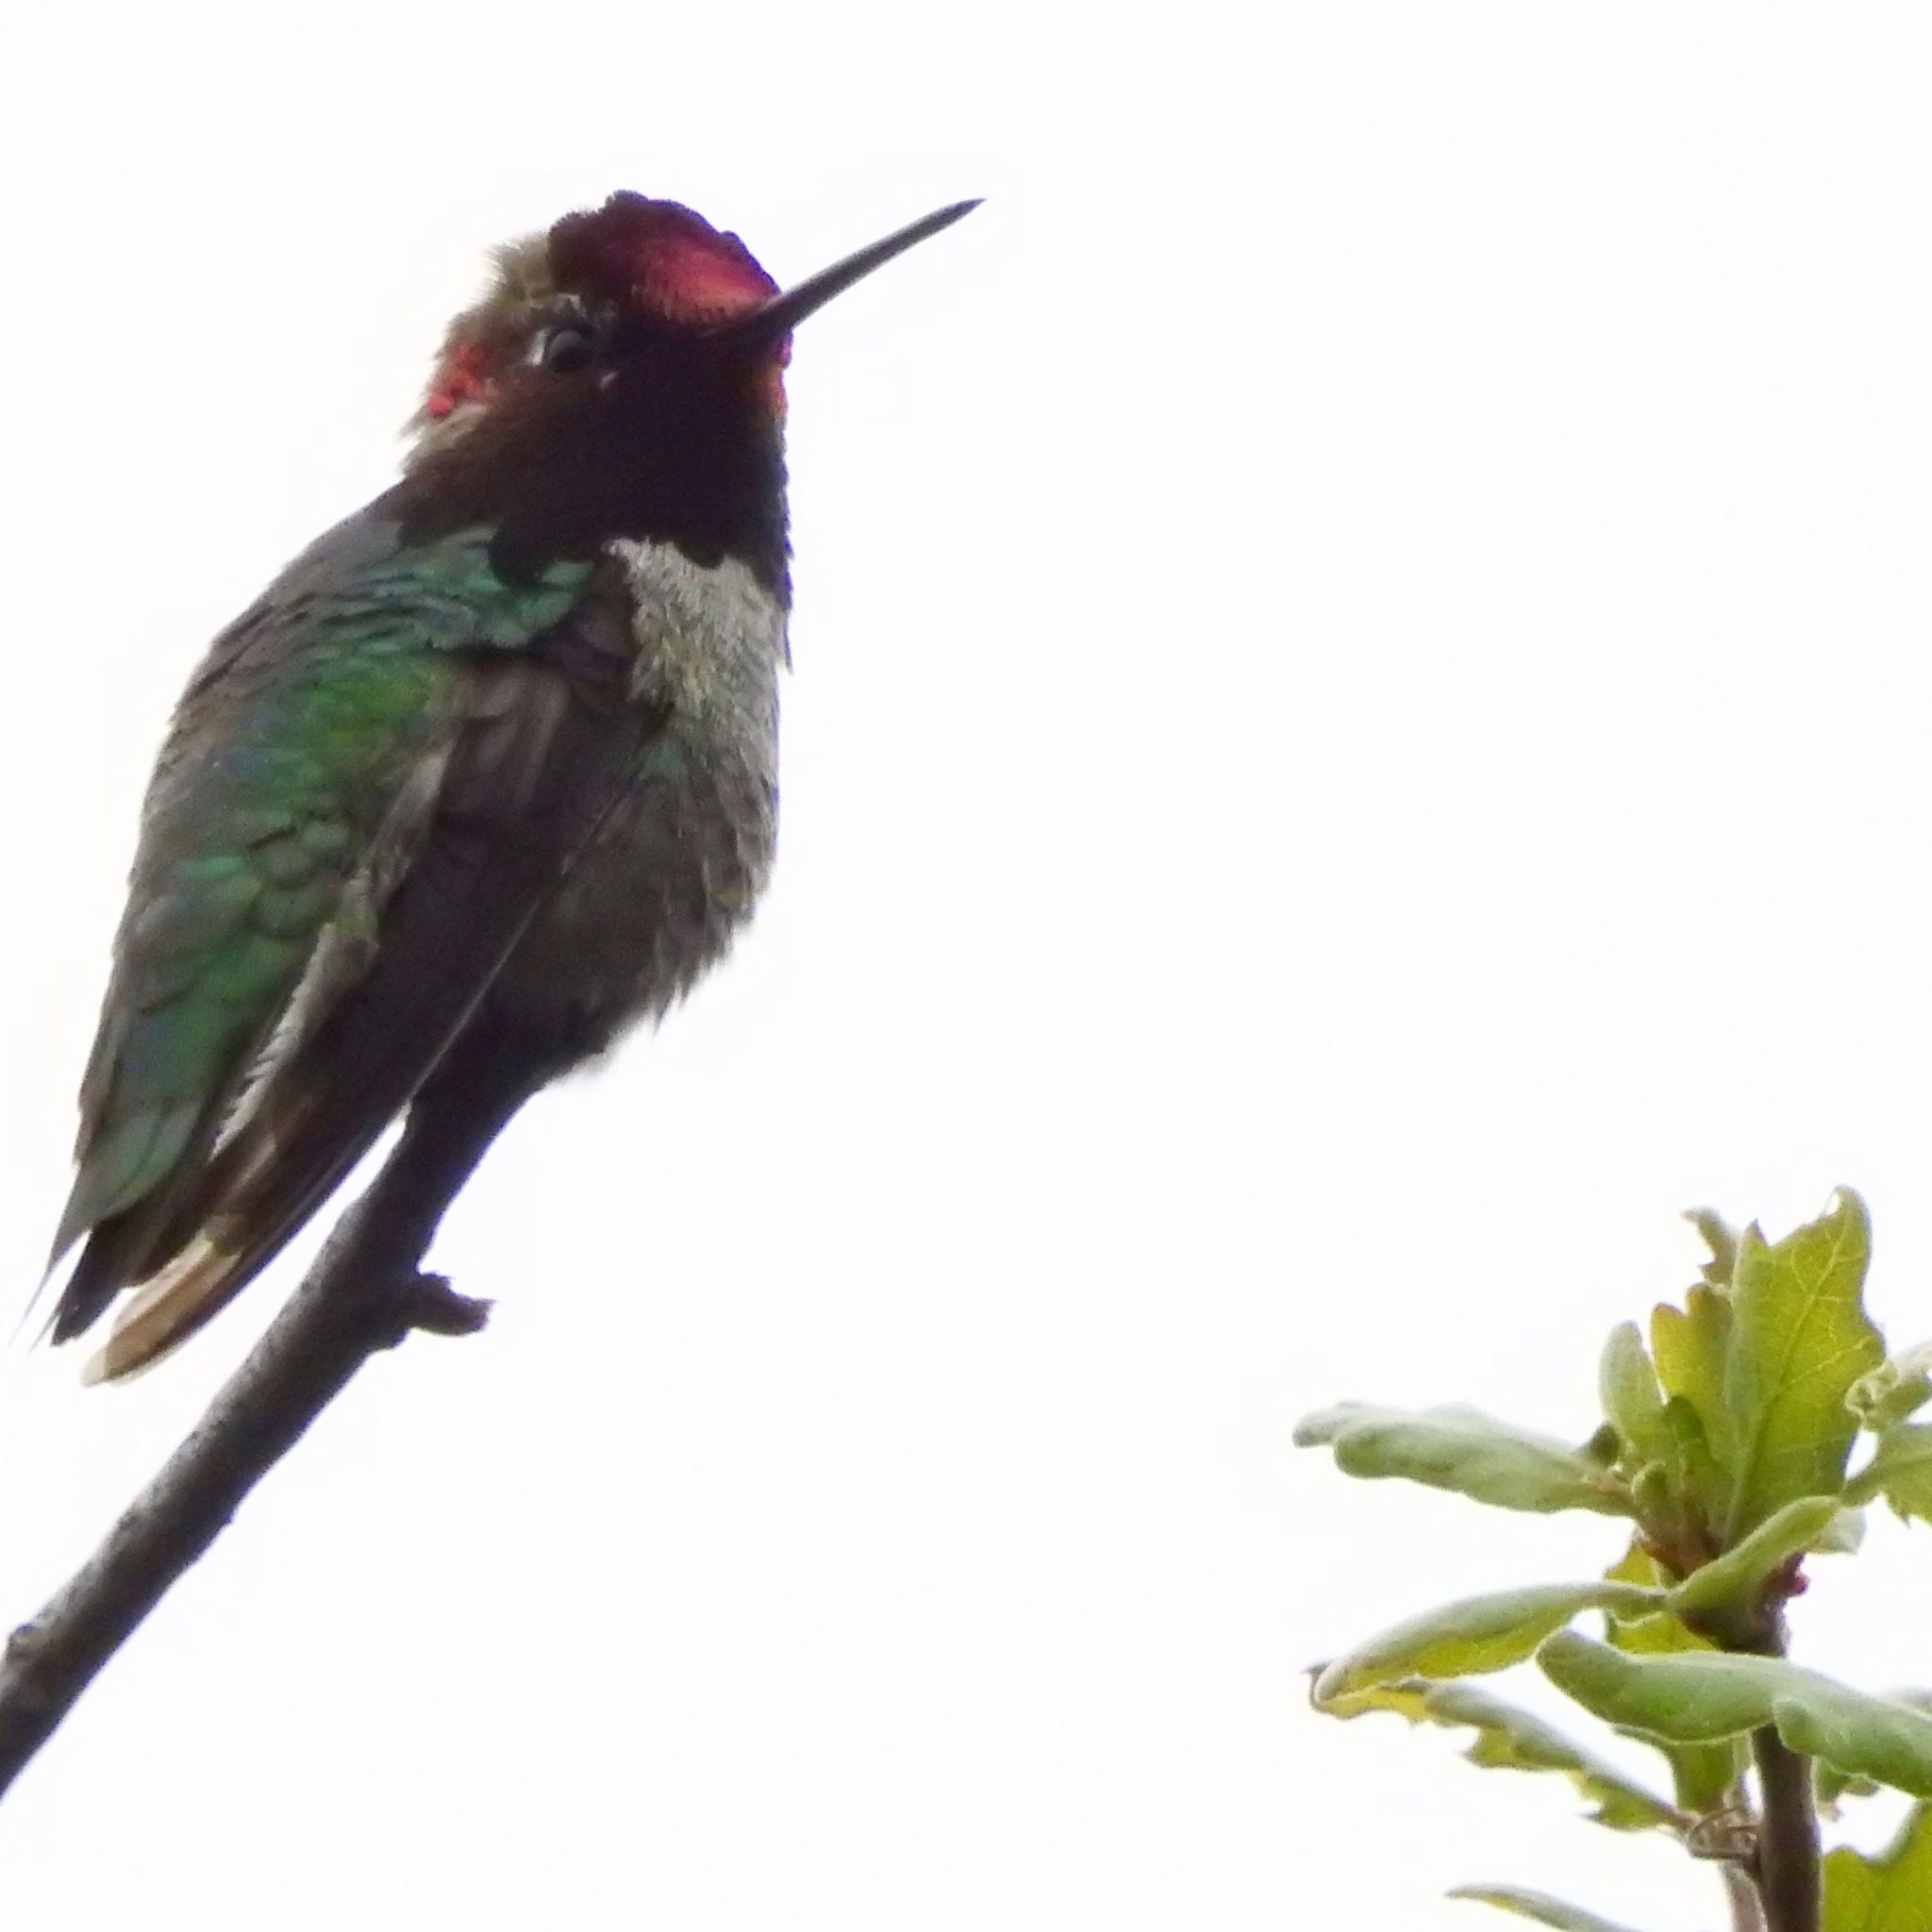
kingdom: Animalia
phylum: Chordata
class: Aves
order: Apodiformes
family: Trochilidae
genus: Calypte
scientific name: Calypte anna
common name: Anna's hummingbird
